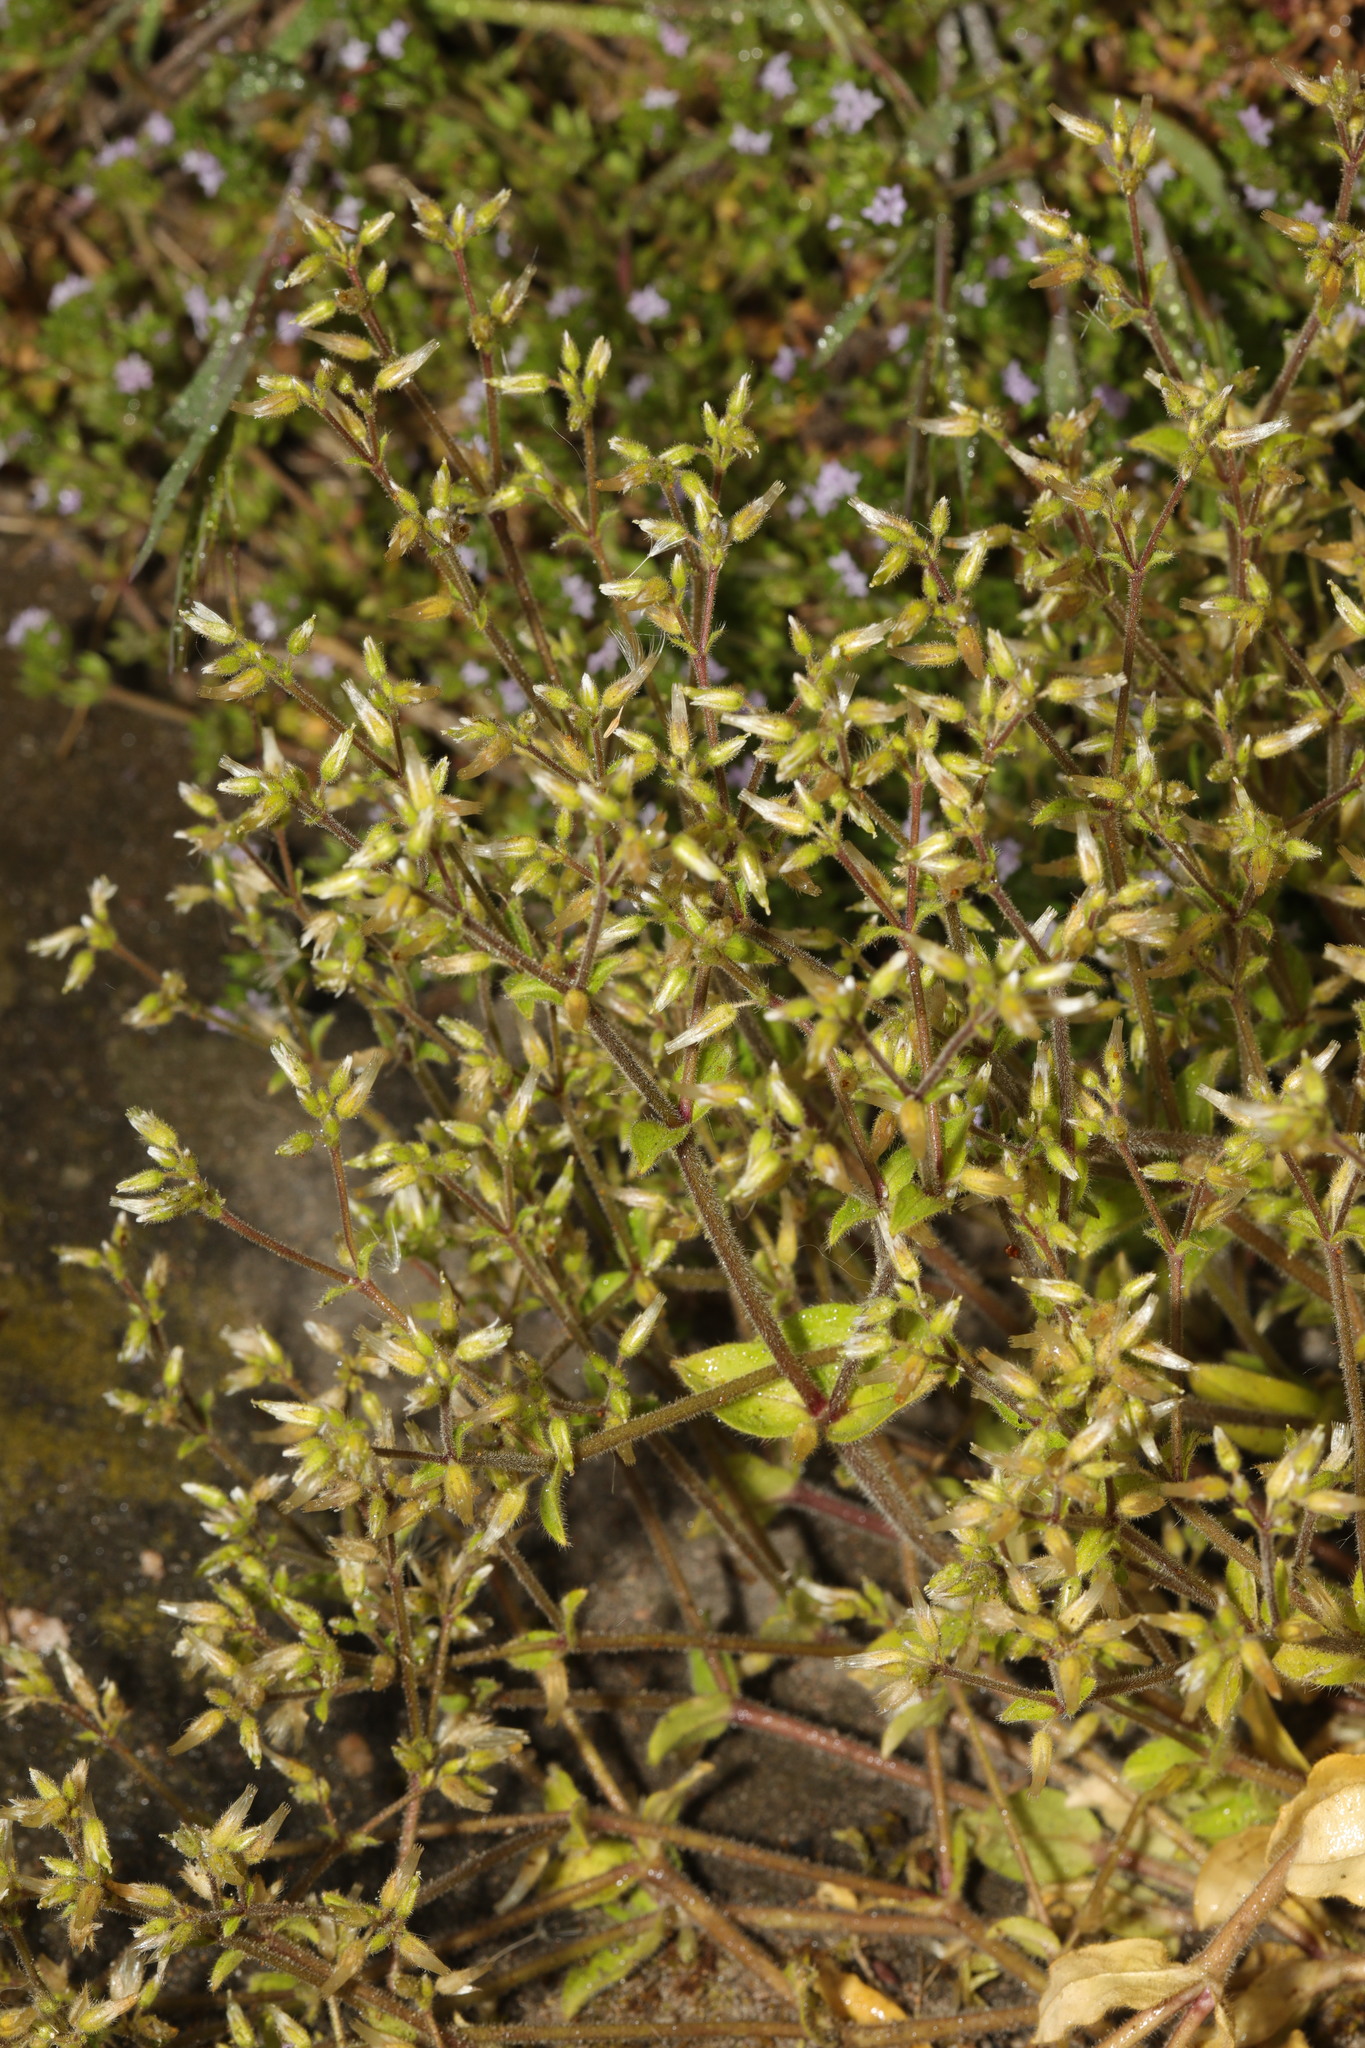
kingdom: Plantae
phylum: Tracheophyta
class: Magnoliopsida
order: Caryophyllales
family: Caryophyllaceae
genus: Cerastium
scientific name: Cerastium fontanum
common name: Common mouse-ear
